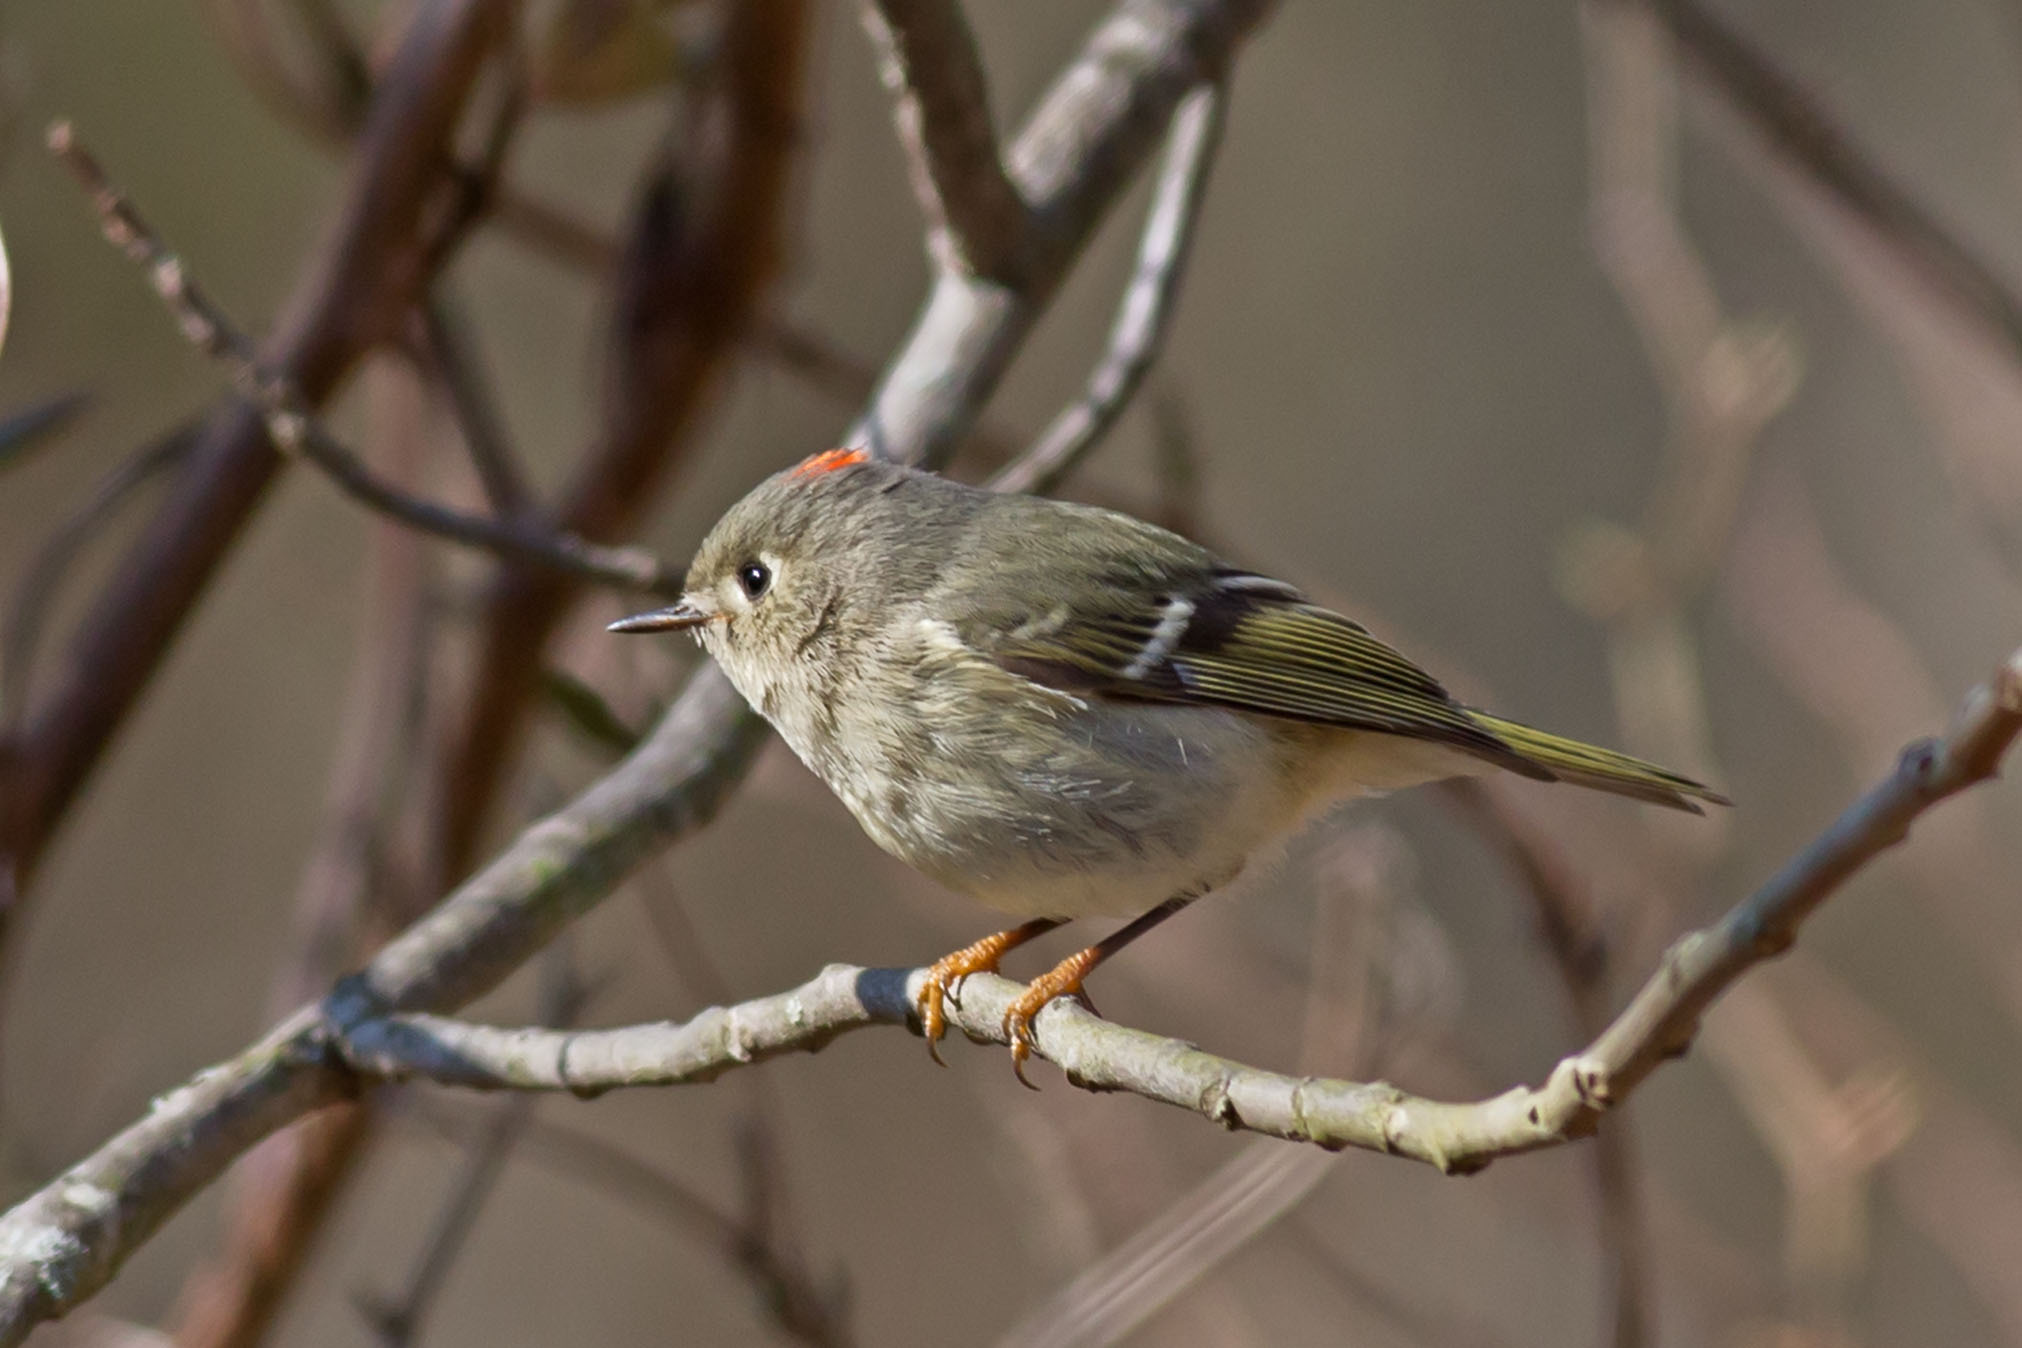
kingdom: Animalia
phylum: Chordata
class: Aves
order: Passeriformes
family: Regulidae
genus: Regulus
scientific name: Regulus calendula
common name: Ruby-crowned kinglet
